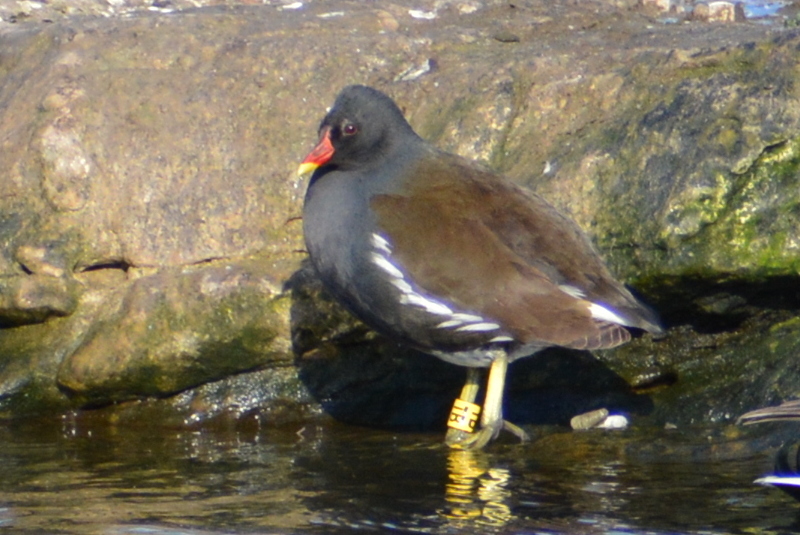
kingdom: Animalia
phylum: Chordata
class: Aves
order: Gruiformes
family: Rallidae
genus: Gallinula
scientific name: Gallinula chloropus
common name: Common moorhen
